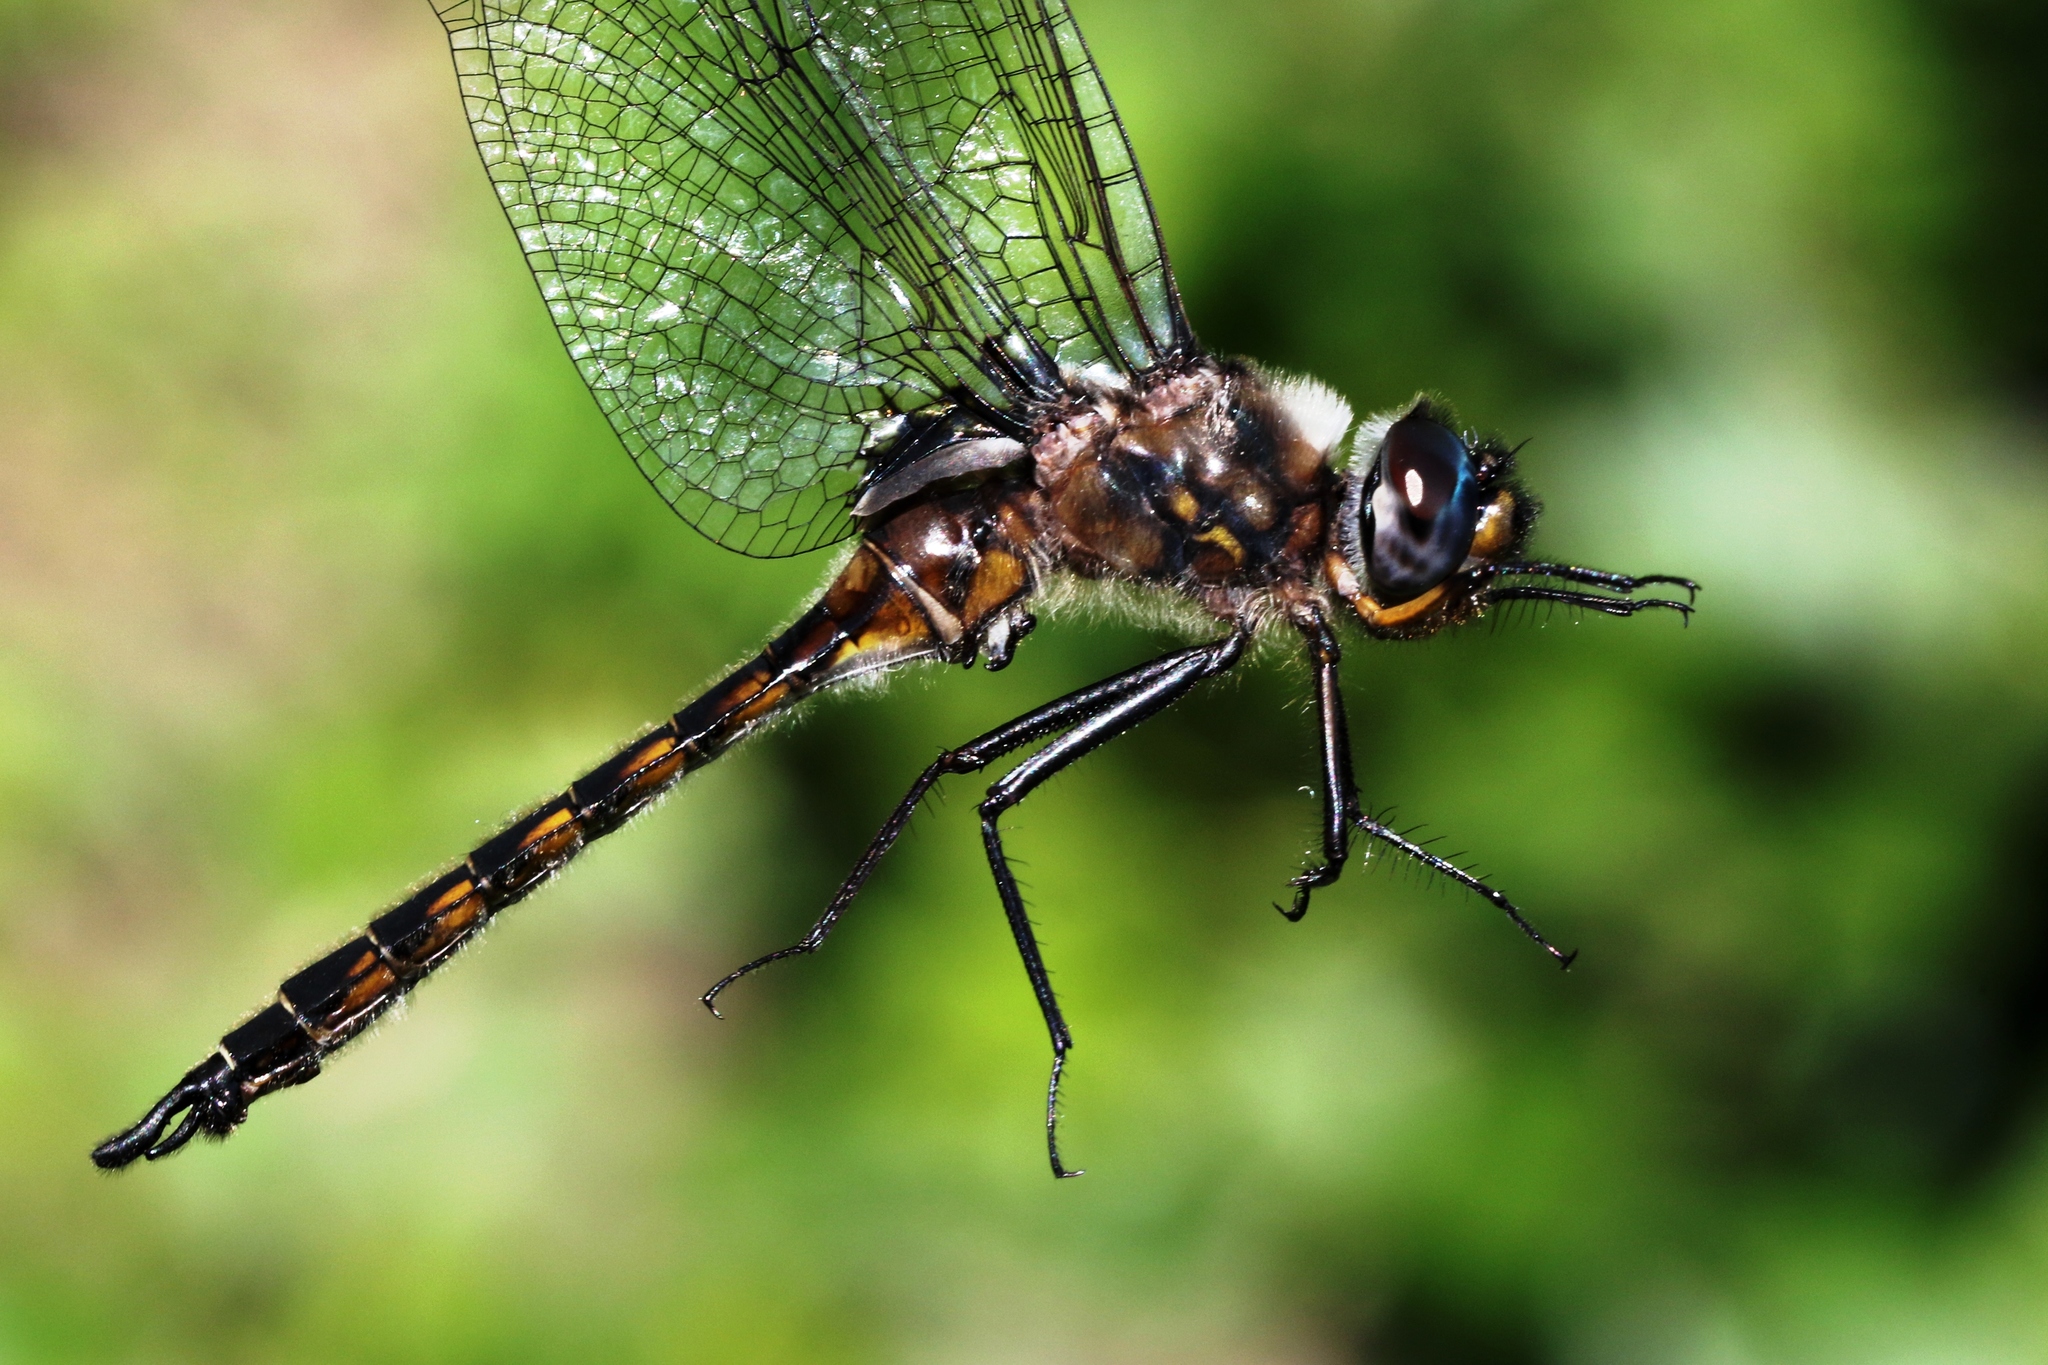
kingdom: Animalia
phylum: Arthropoda
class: Insecta
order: Odonata
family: Corduliidae
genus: Epitheca
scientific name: Epitheca spinigera
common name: Spiny baskettail
